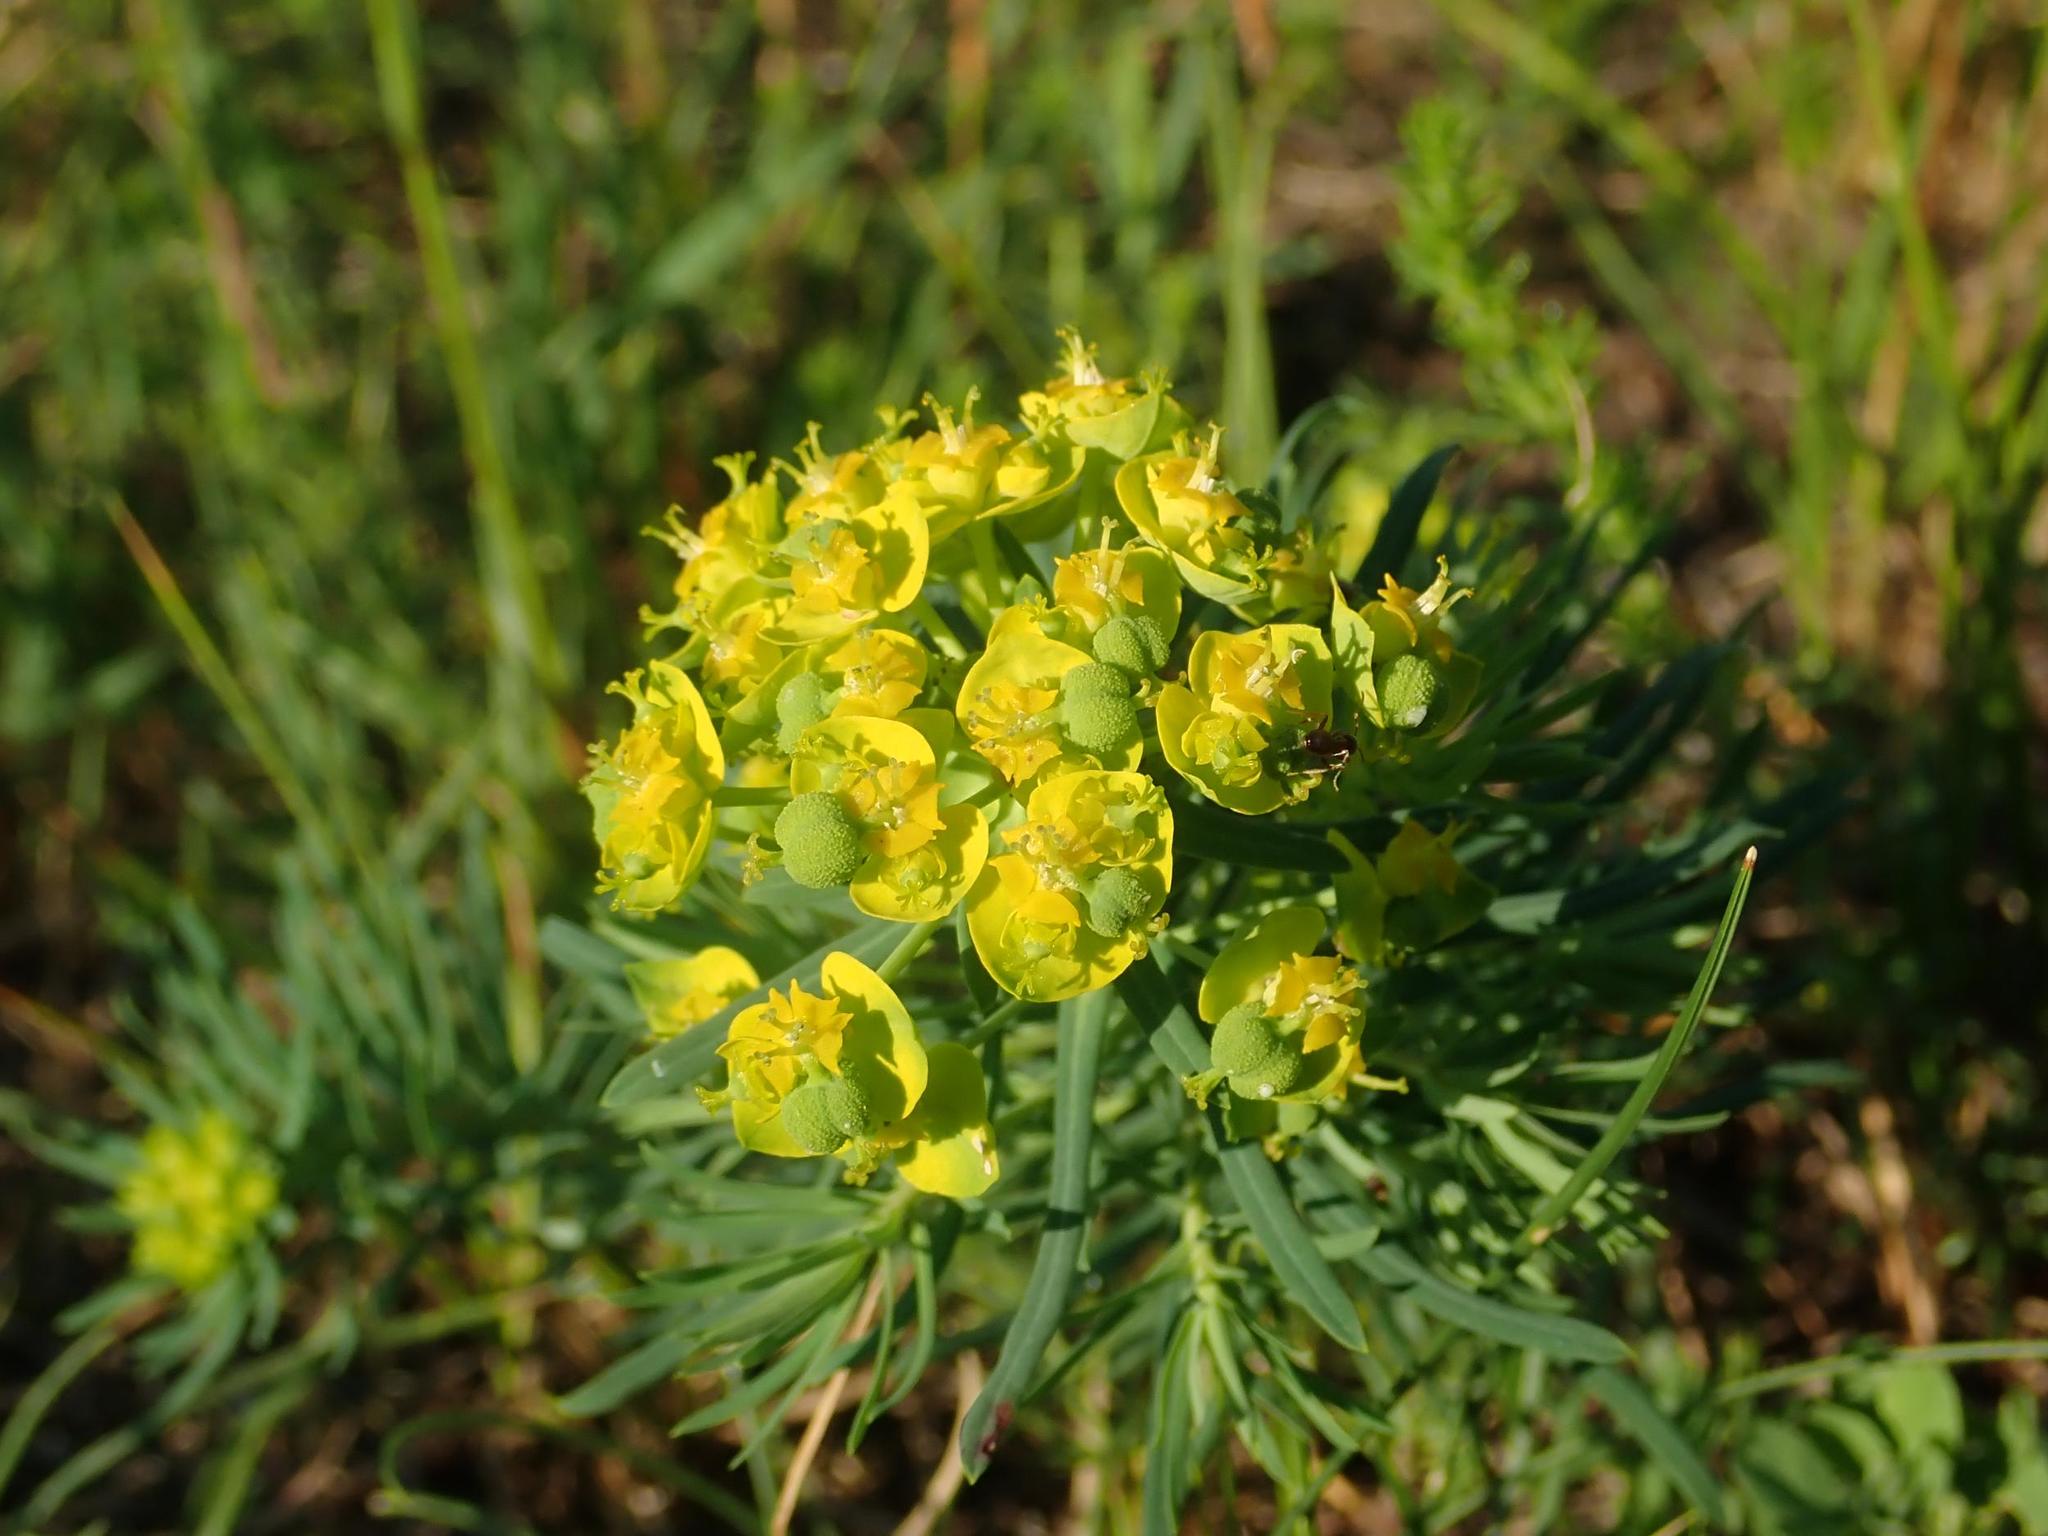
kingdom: Plantae
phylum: Tracheophyta
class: Magnoliopsida
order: Malpighiales
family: Euphorbiaceae
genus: Euphorbia
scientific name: Euphorbia cyparissias
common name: Cypress spurge
